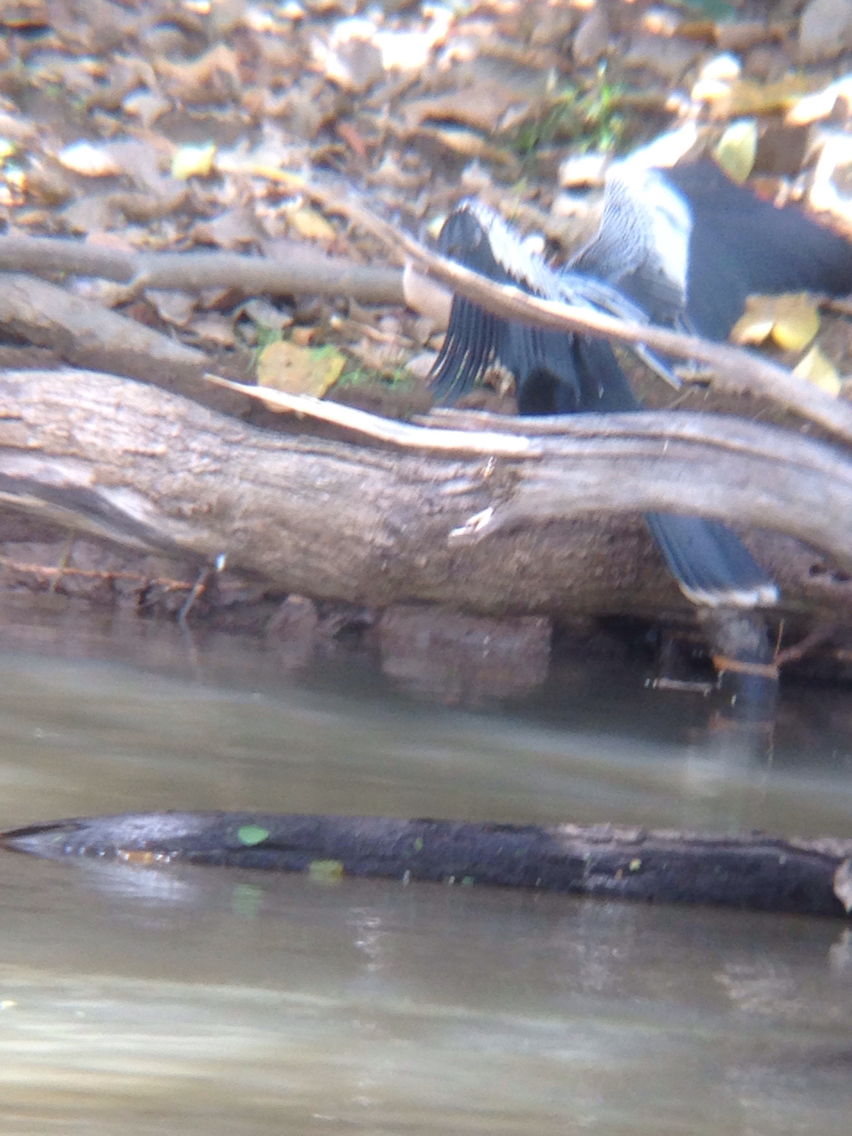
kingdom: Animalia
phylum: Chordata
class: Aves
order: Suliformes
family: Anhingidae
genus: Anhinga
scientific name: Anhinga anhinga
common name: Anhinga
